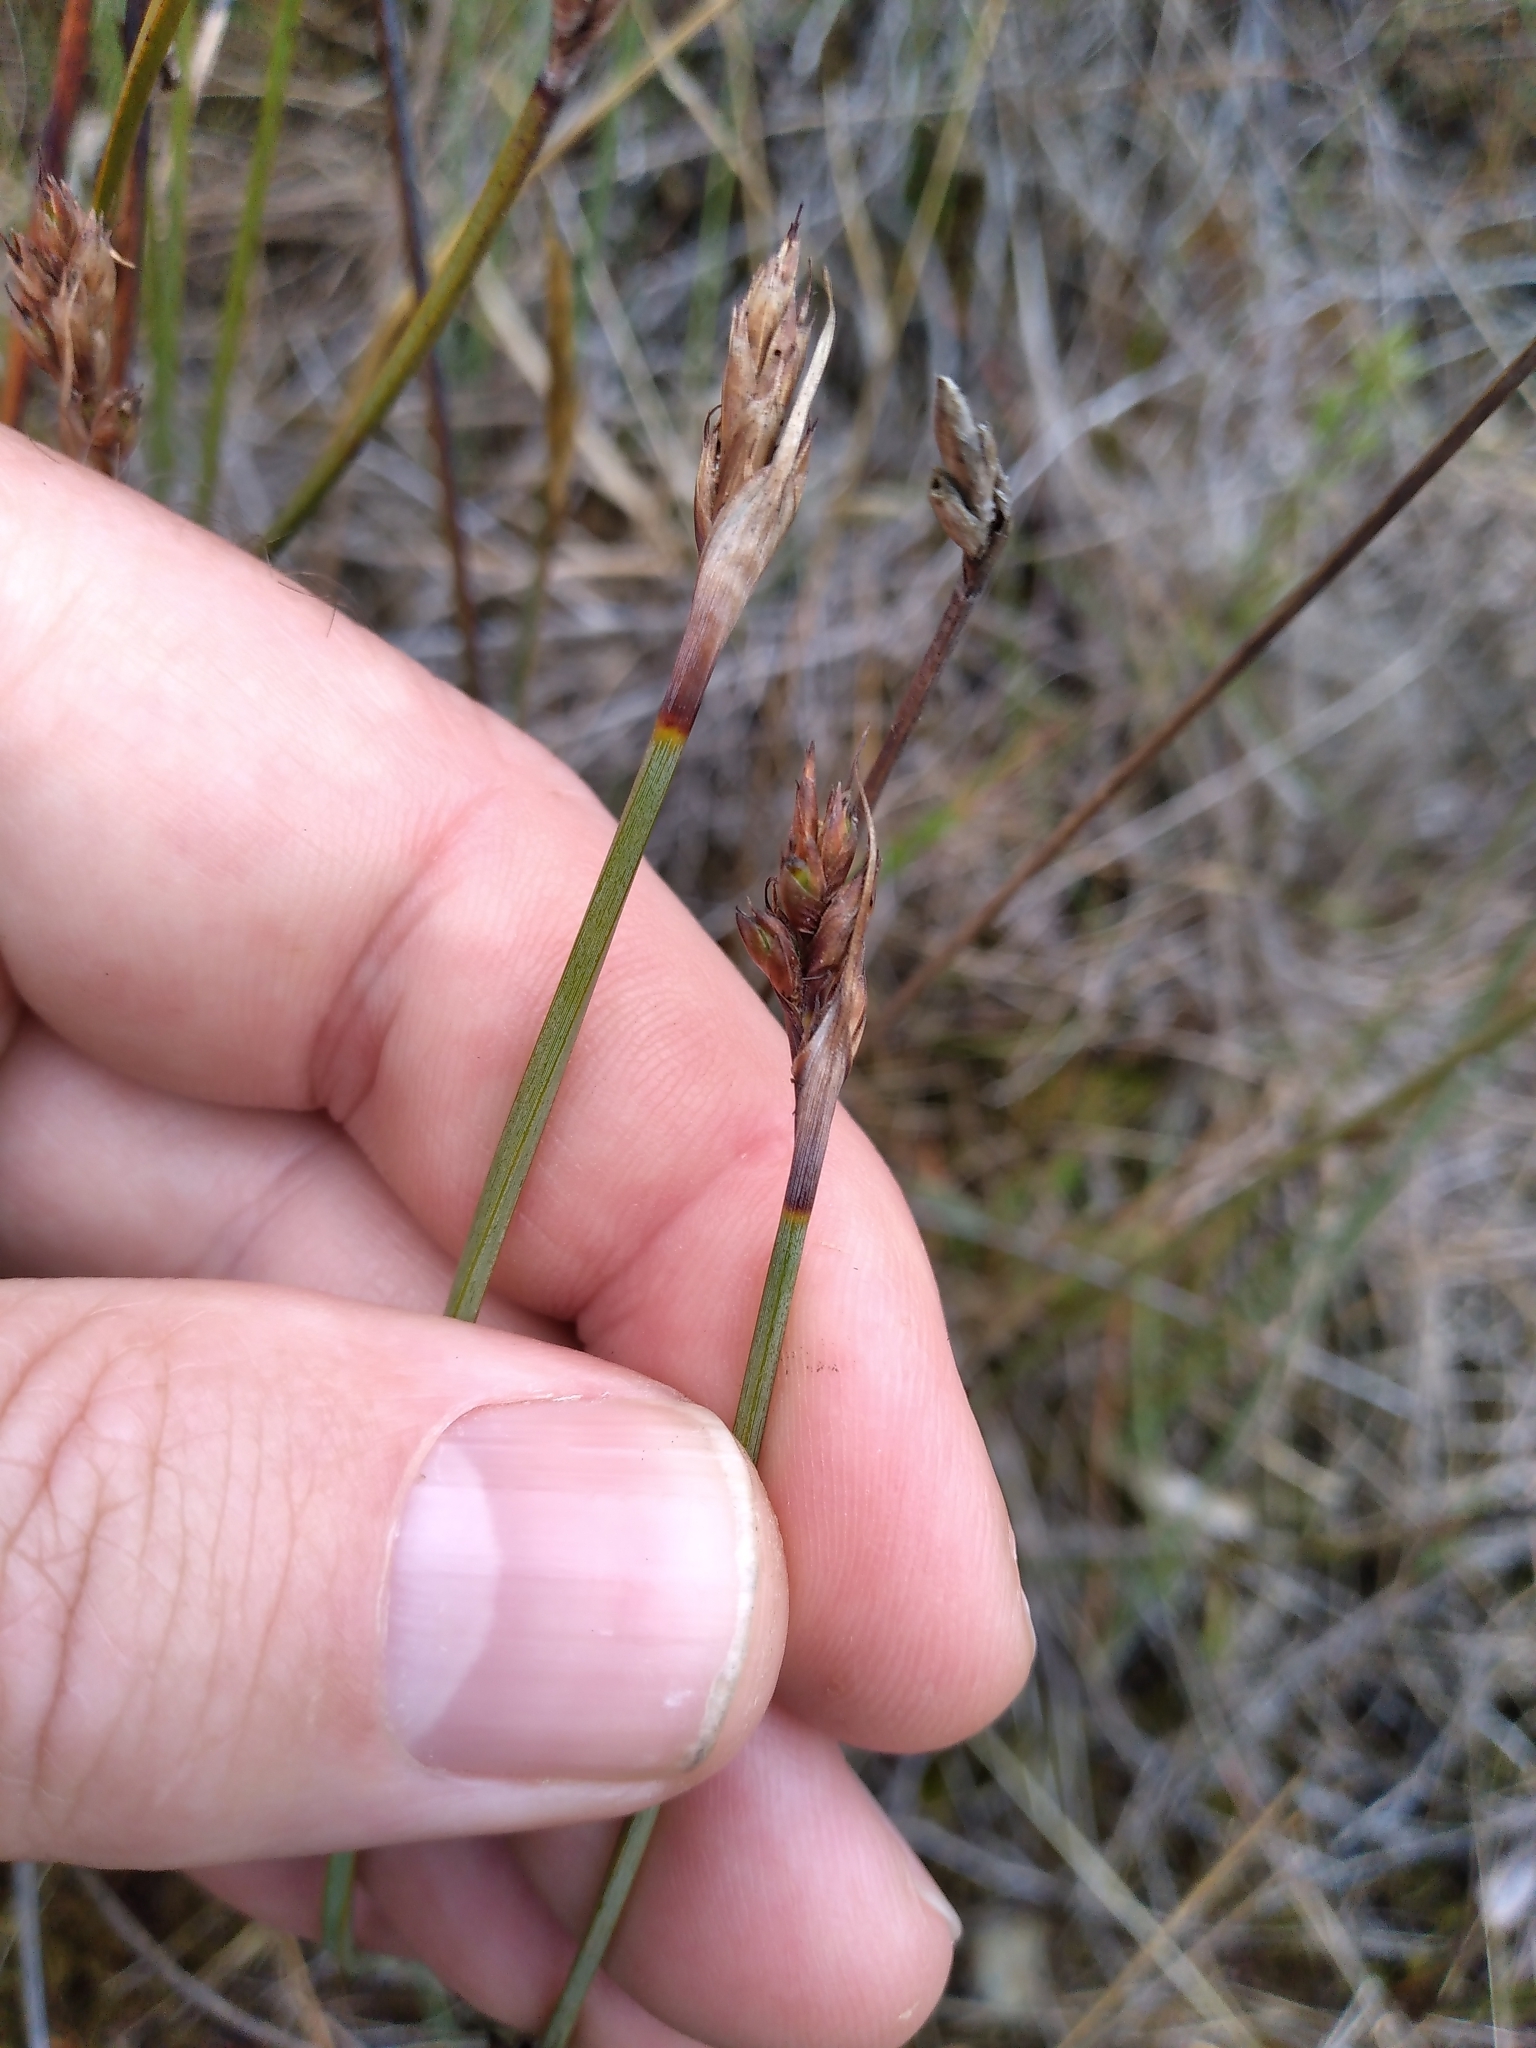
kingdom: Plantae
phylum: Tracheophyta
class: Liliopsida
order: Poales
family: Cyperaceae
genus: Lepidosperma
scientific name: Lepidosperma australe
